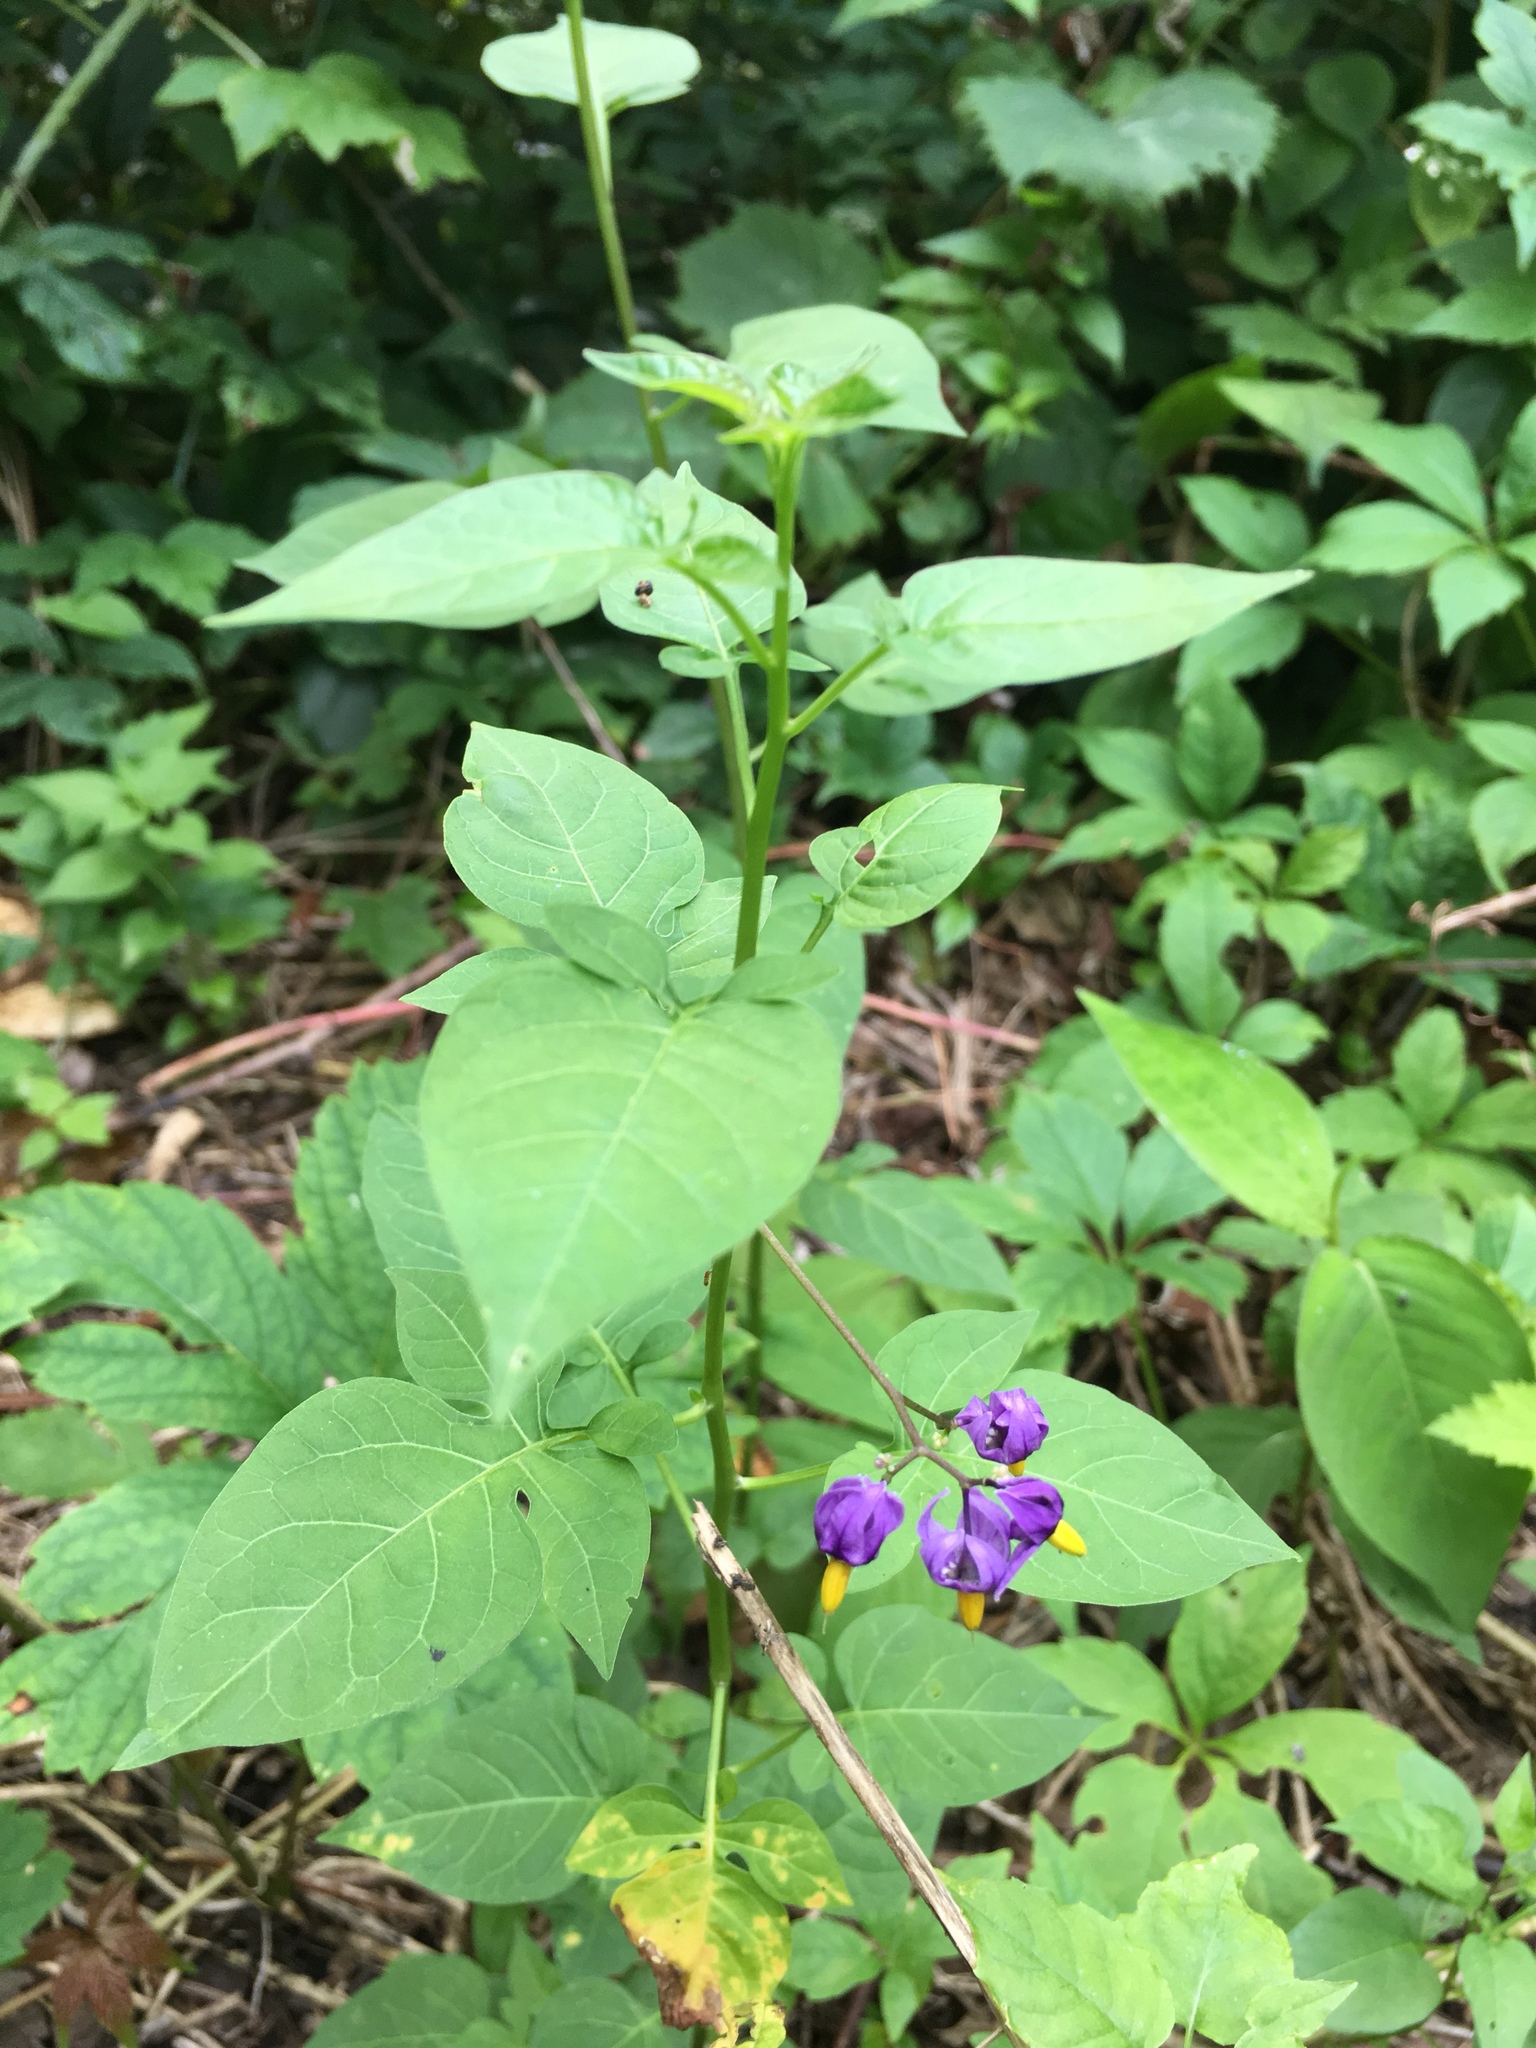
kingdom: Plantae
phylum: Tracheophyta
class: Magnoliopsida
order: Solanales
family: Solanaceae
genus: Solanum
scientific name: Solanum dulcamara
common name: Climbing nightshade
